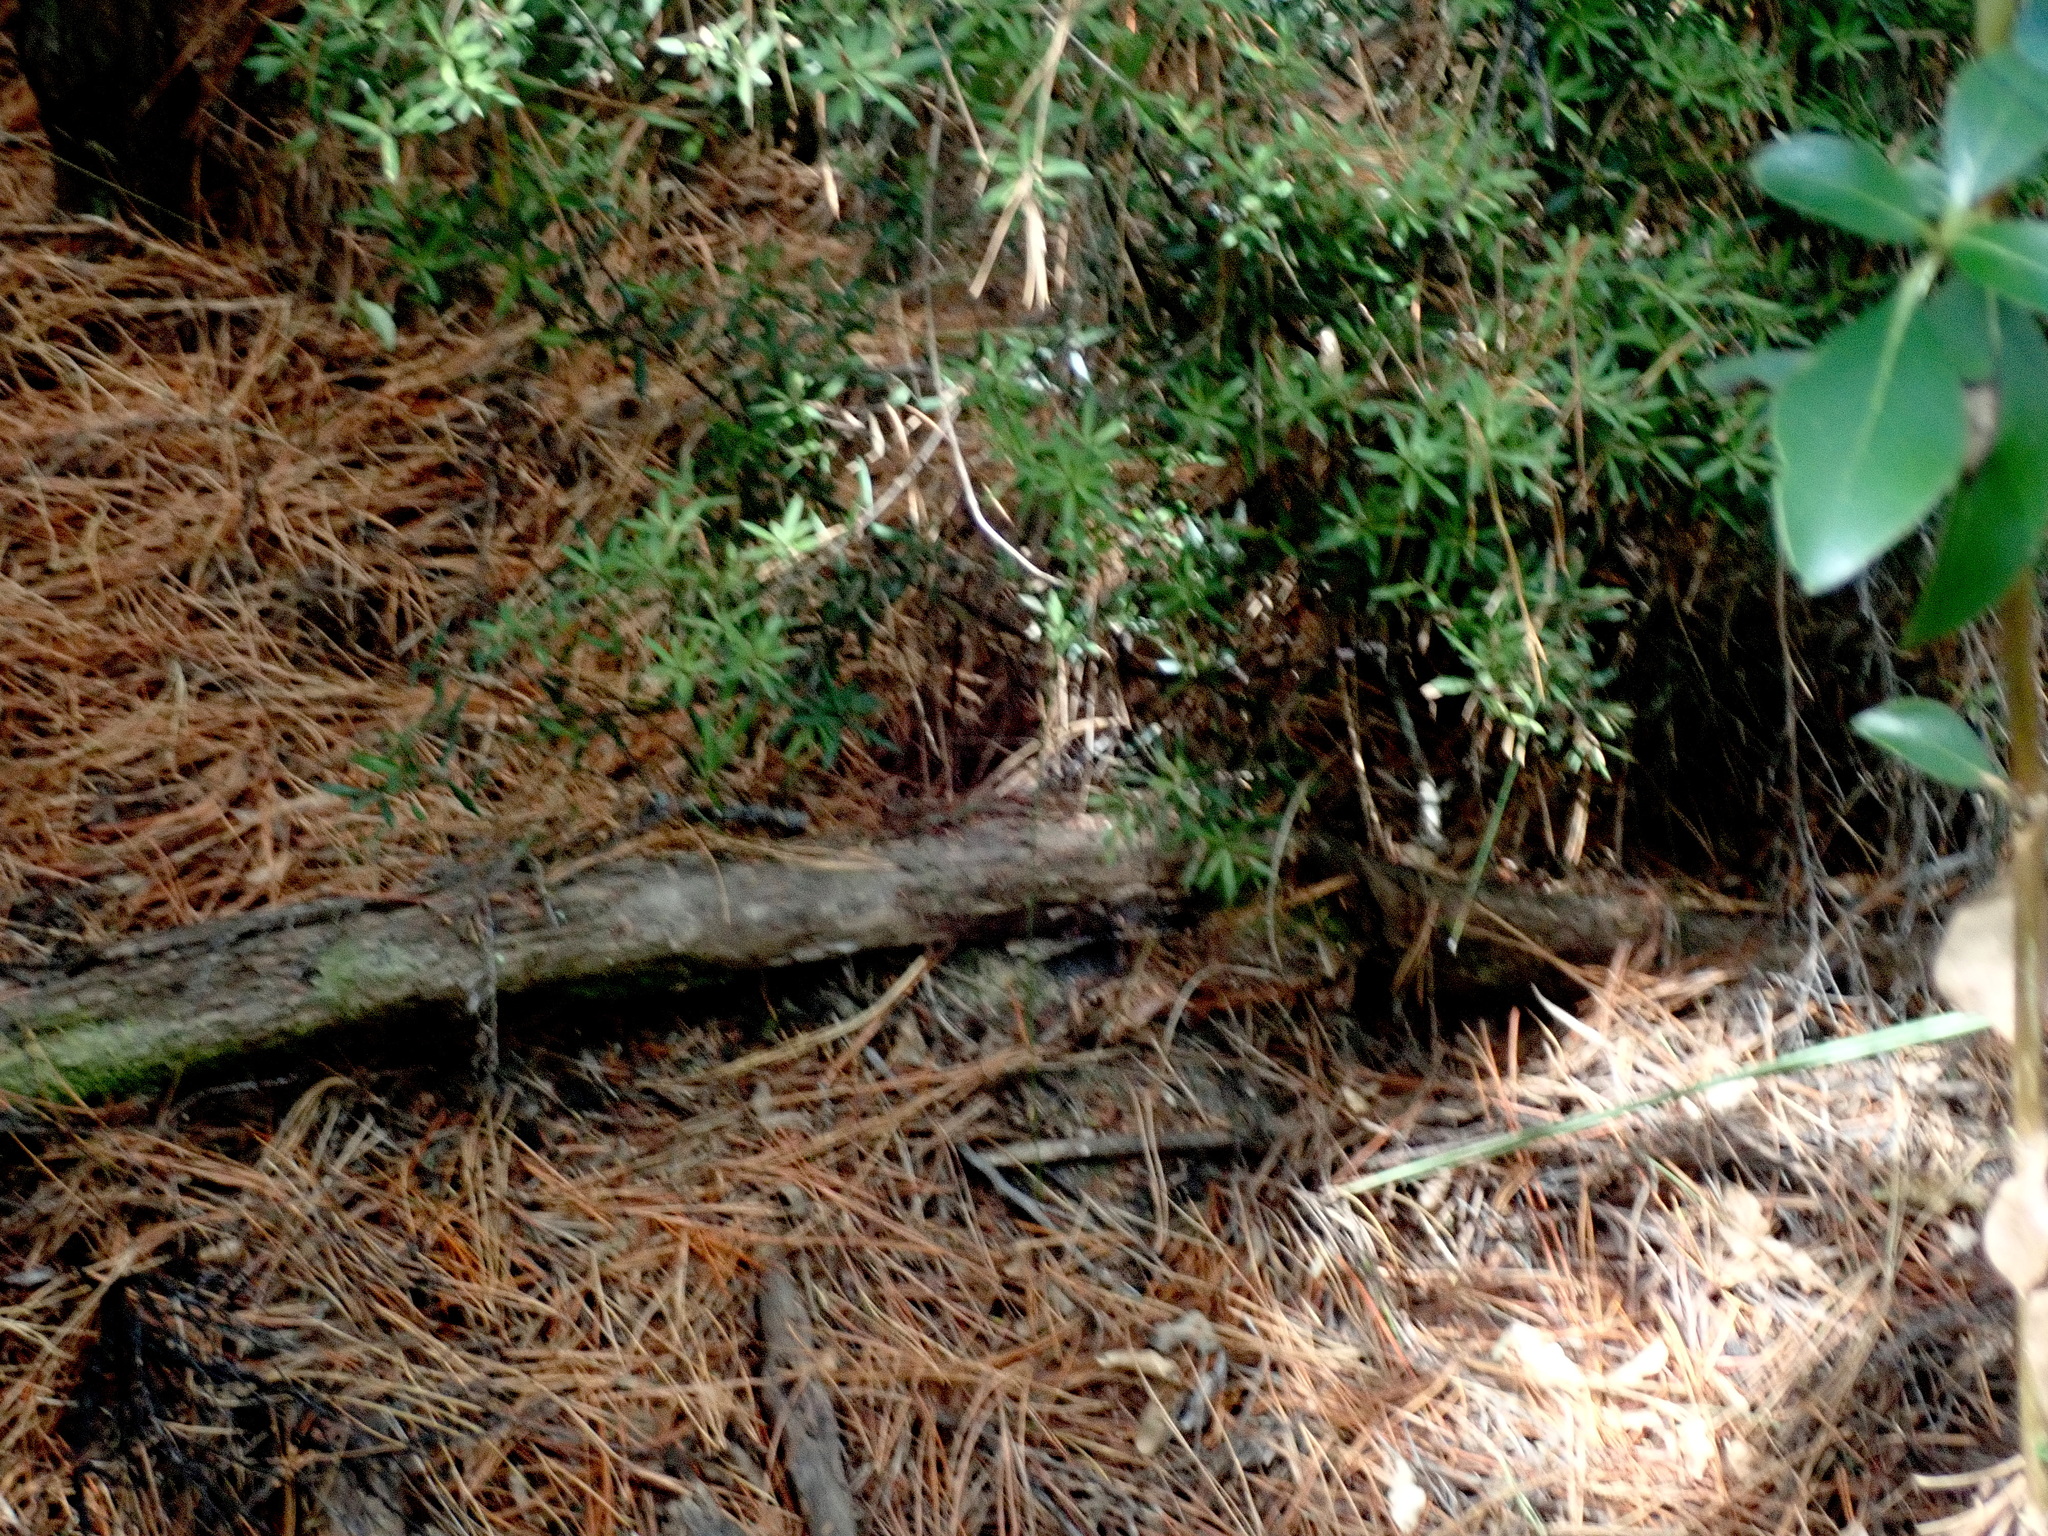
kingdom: Plantae
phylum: Tracheophyta
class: Magnoliopsida
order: Ericales
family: Ericaceae
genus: Leucopogon
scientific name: Leucopogon fasciculatus
